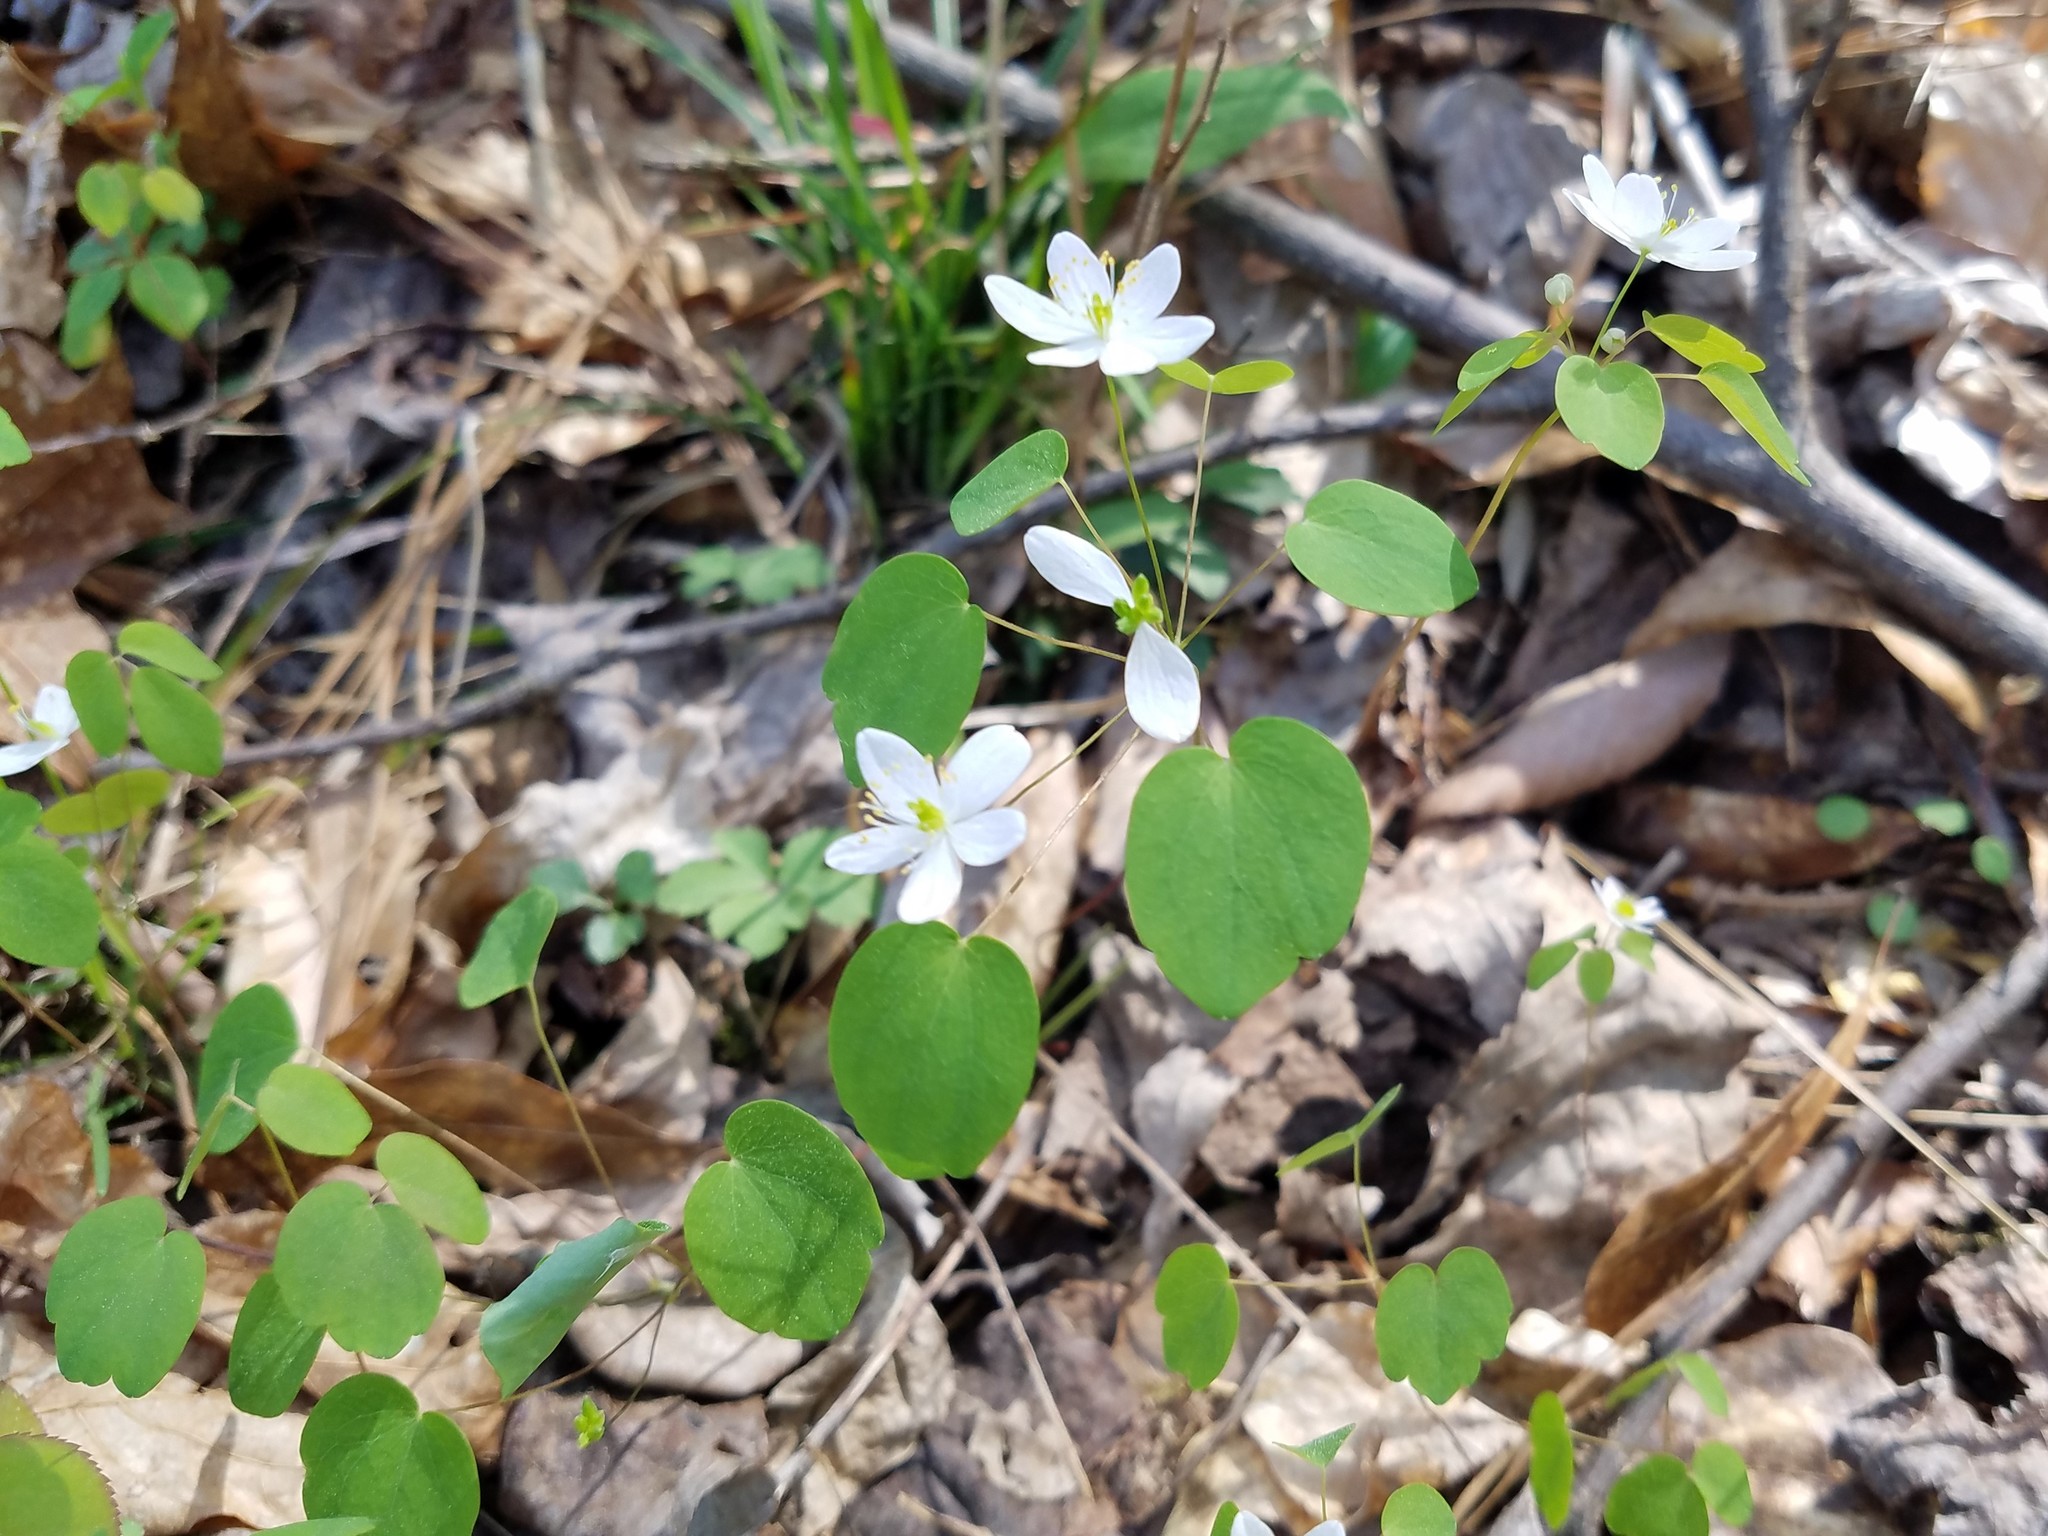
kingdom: Plantae
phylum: Tracheophyta
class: Magnoliopsida
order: Ranunculales
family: Ranunculaceae
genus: Thalictrum
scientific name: Thalictrum thalictroides
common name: Rue-anemone
